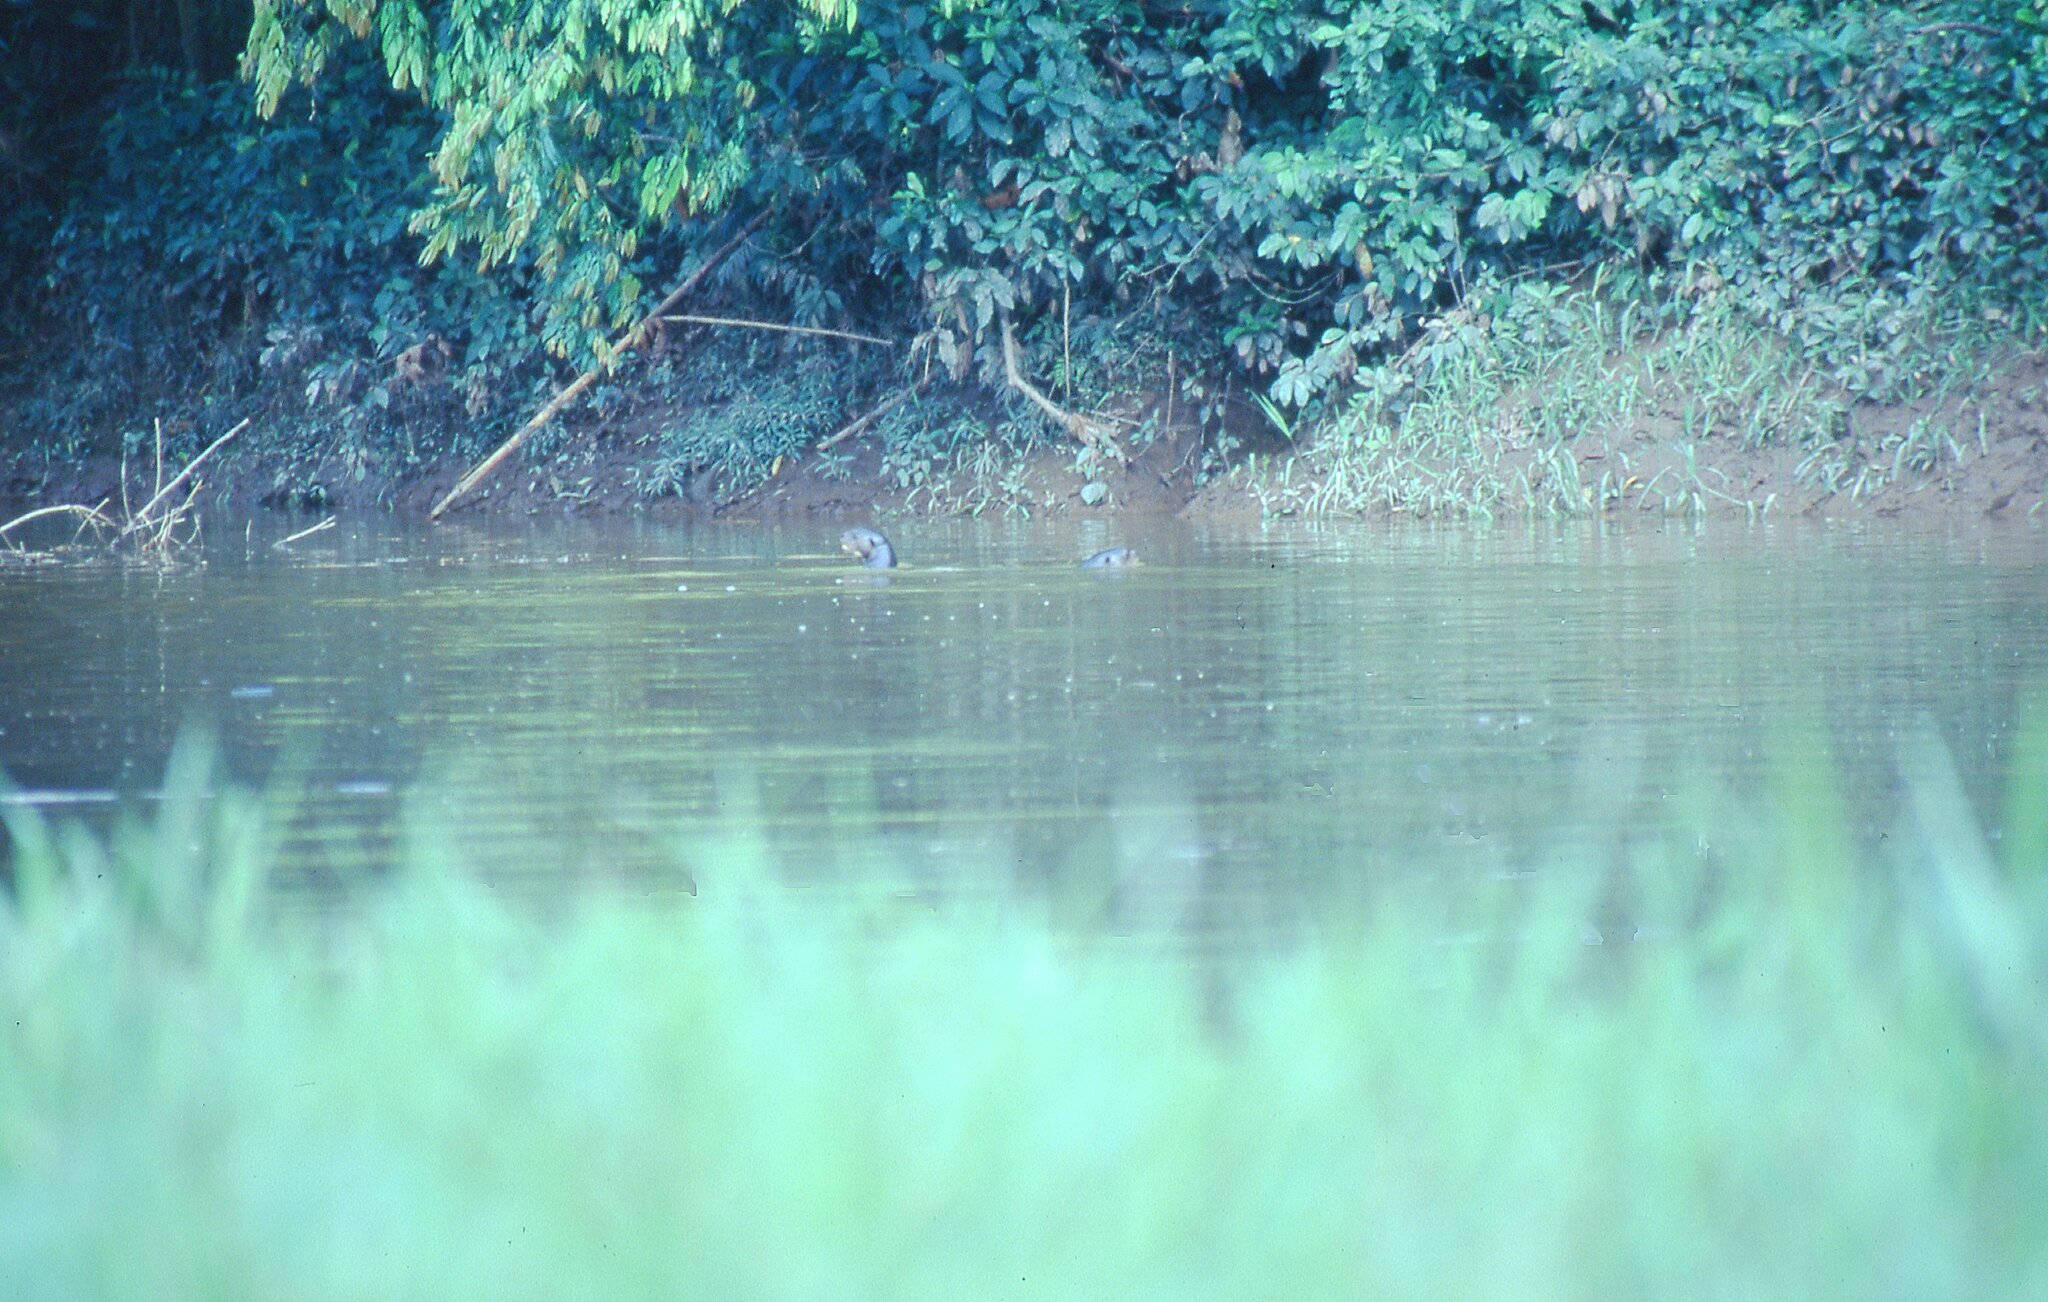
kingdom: Animalia
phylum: Chordata
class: Mammalia
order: Carnivora
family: Mustelidae
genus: Pteronura
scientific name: Pteronura brasiliensis
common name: Giant otter
